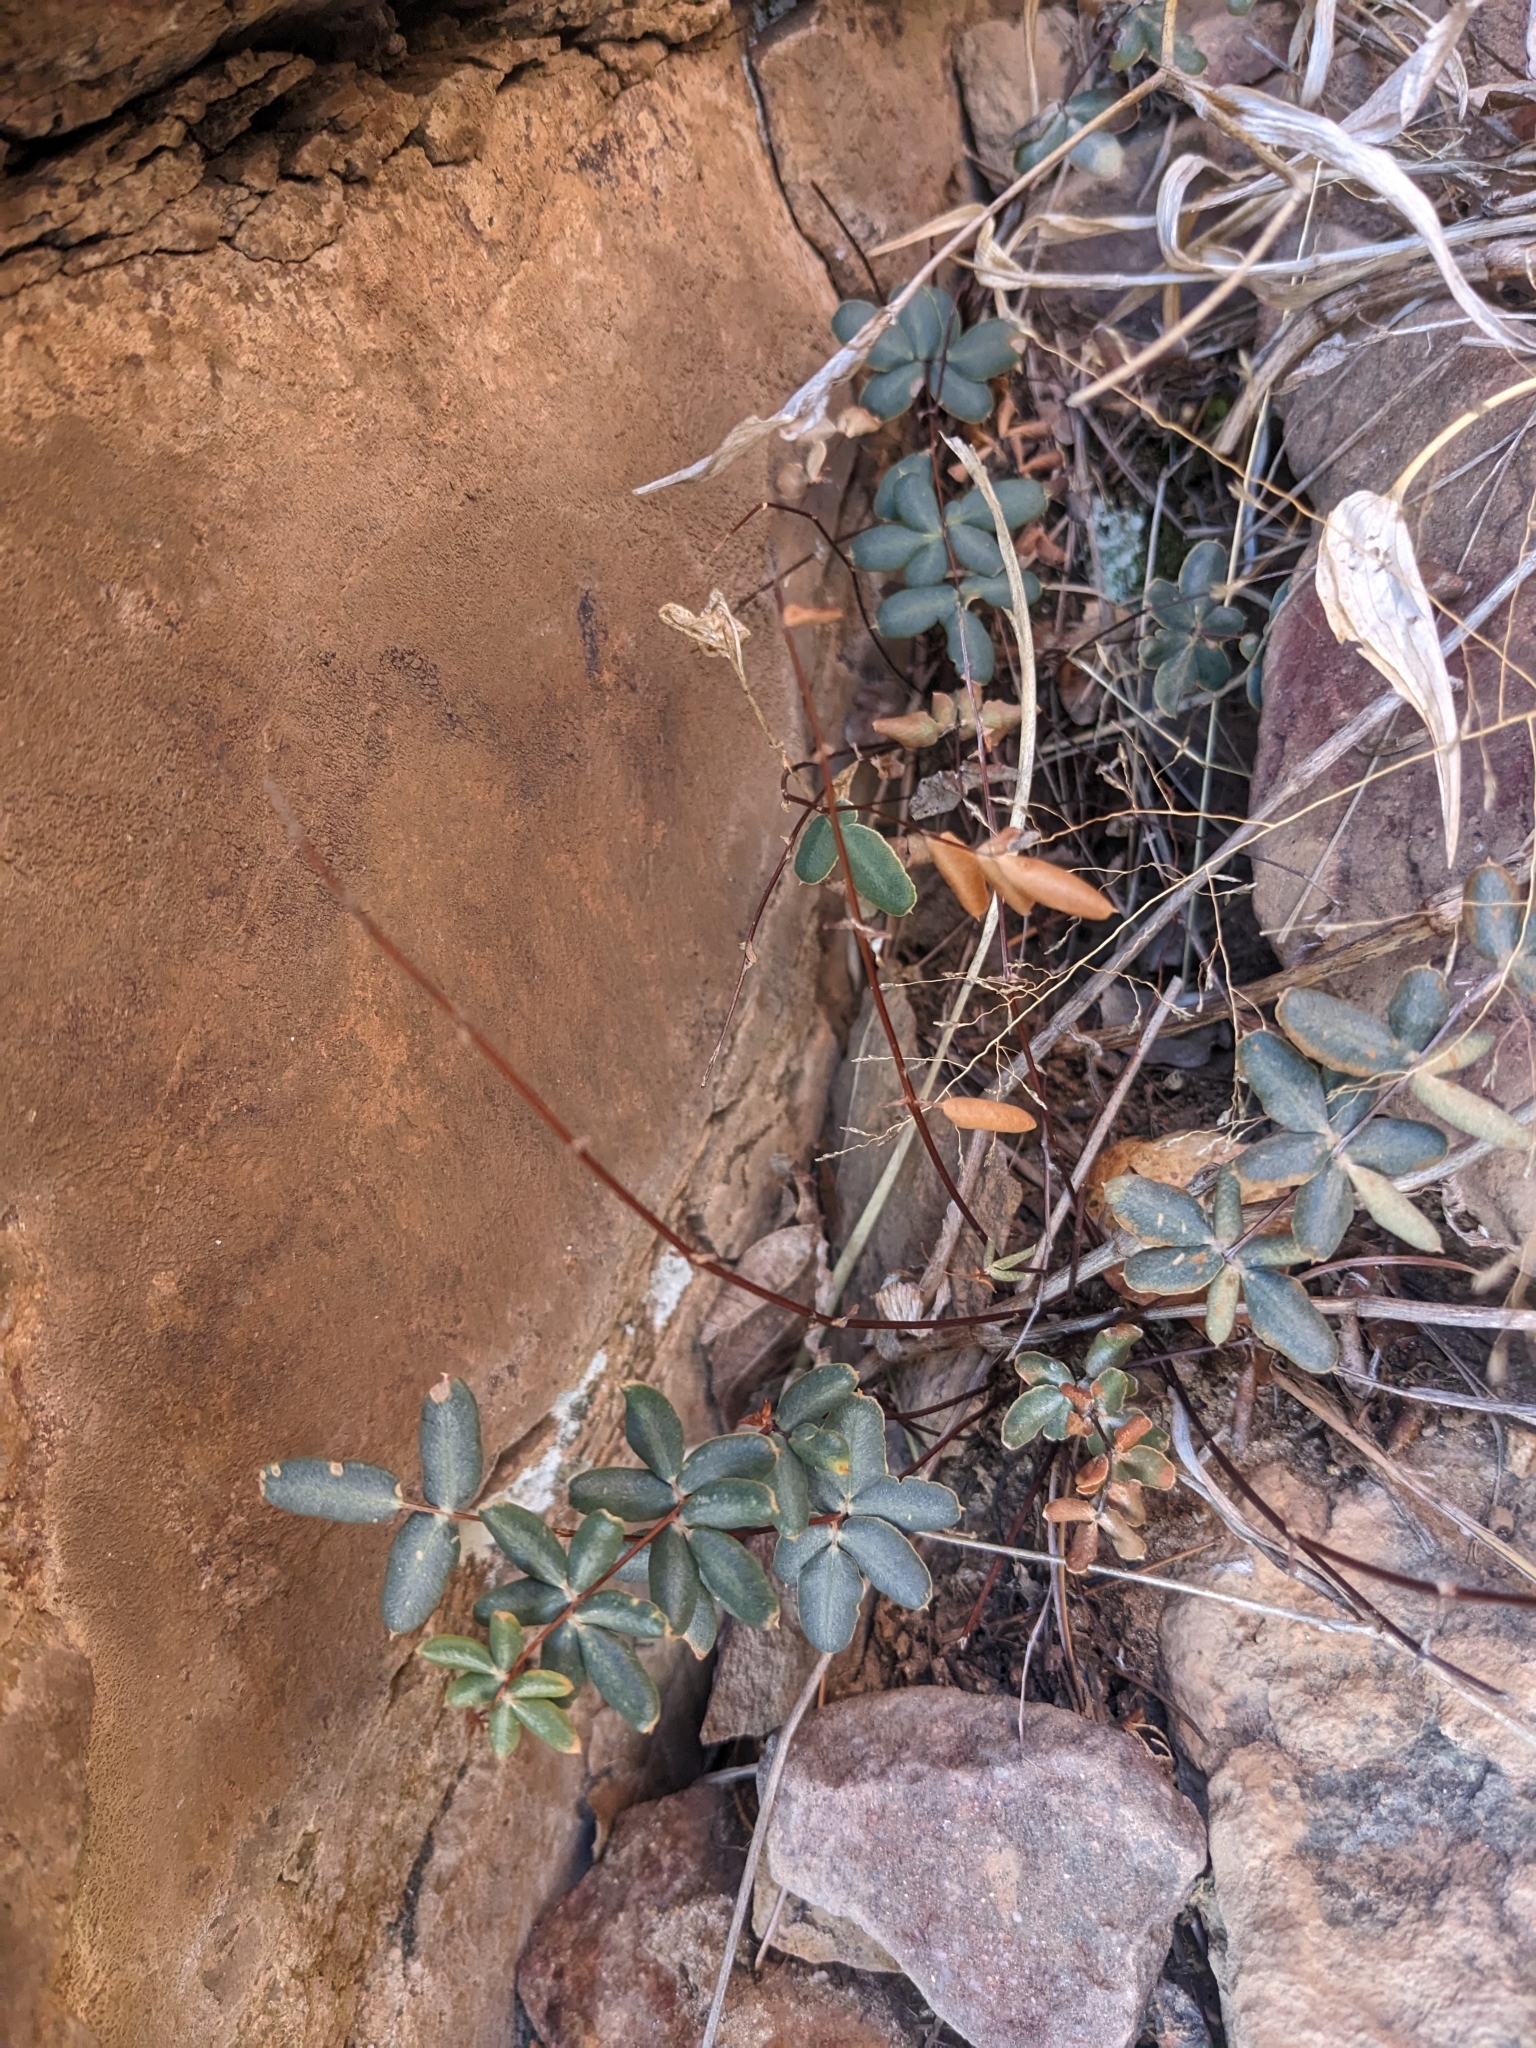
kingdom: Plantae
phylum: Tracheophyta
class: Polypodiopsida
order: Polypodiales
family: Pteridaceae
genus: Pellaea
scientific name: Pellaea wrightiana
